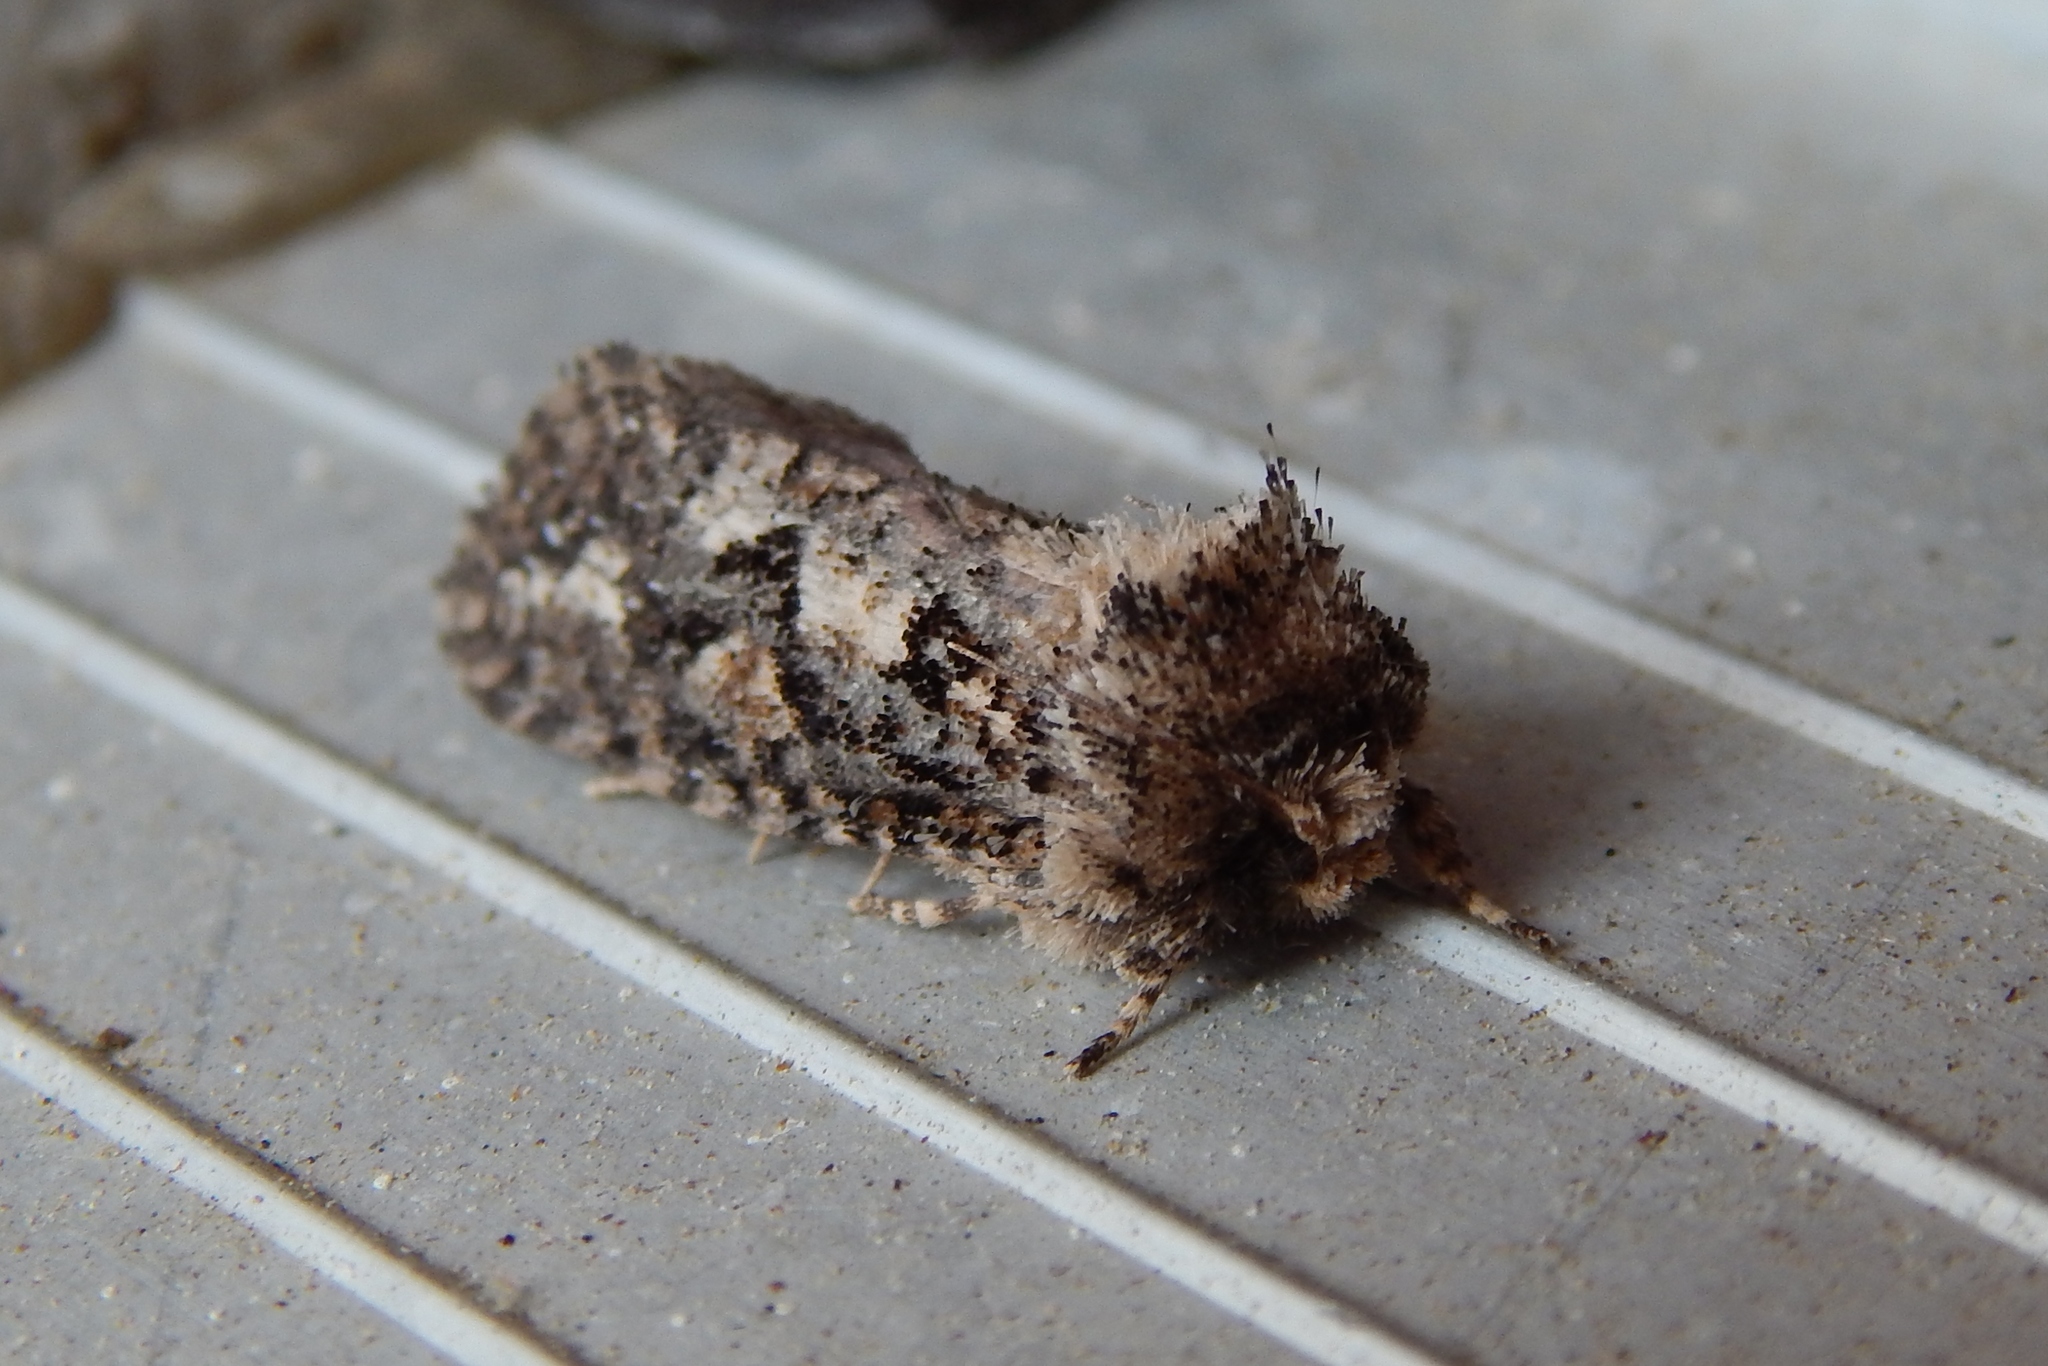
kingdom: Animalia
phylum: Arthropoda
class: Insecta
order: Lepidoptera
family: Tineidae
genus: Acrolophus
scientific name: Acrolophus arcanella
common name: Arcane grass tubeworm moth
